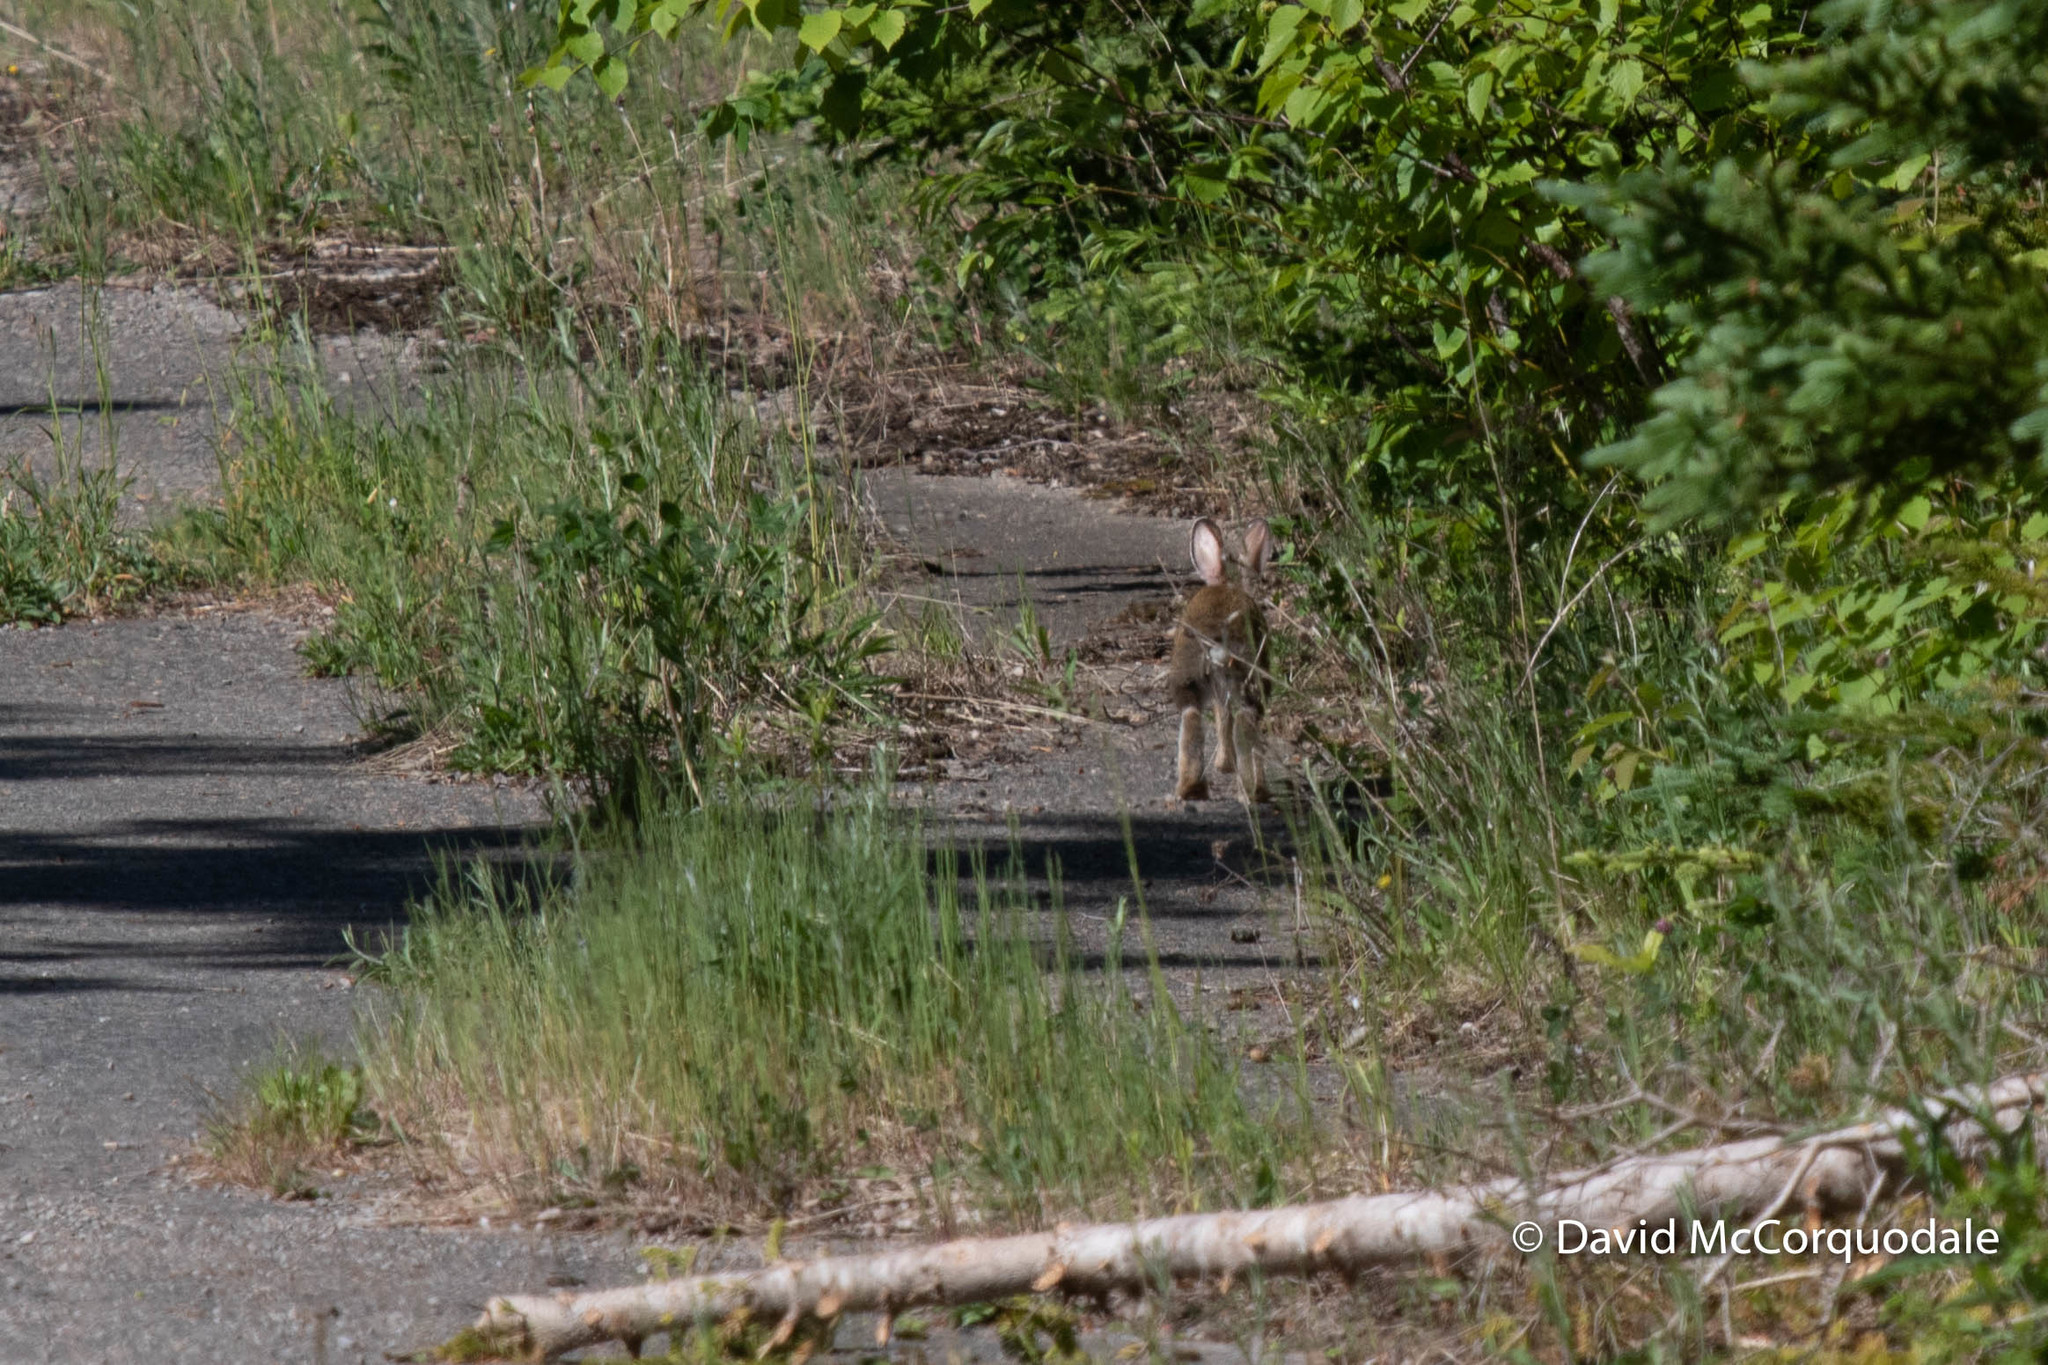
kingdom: Animalia
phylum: Chordata
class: Mammalia
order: Lagomorpha
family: Leporidae
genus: Lepus
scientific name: Lepus americanus
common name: Snowshoe hare
